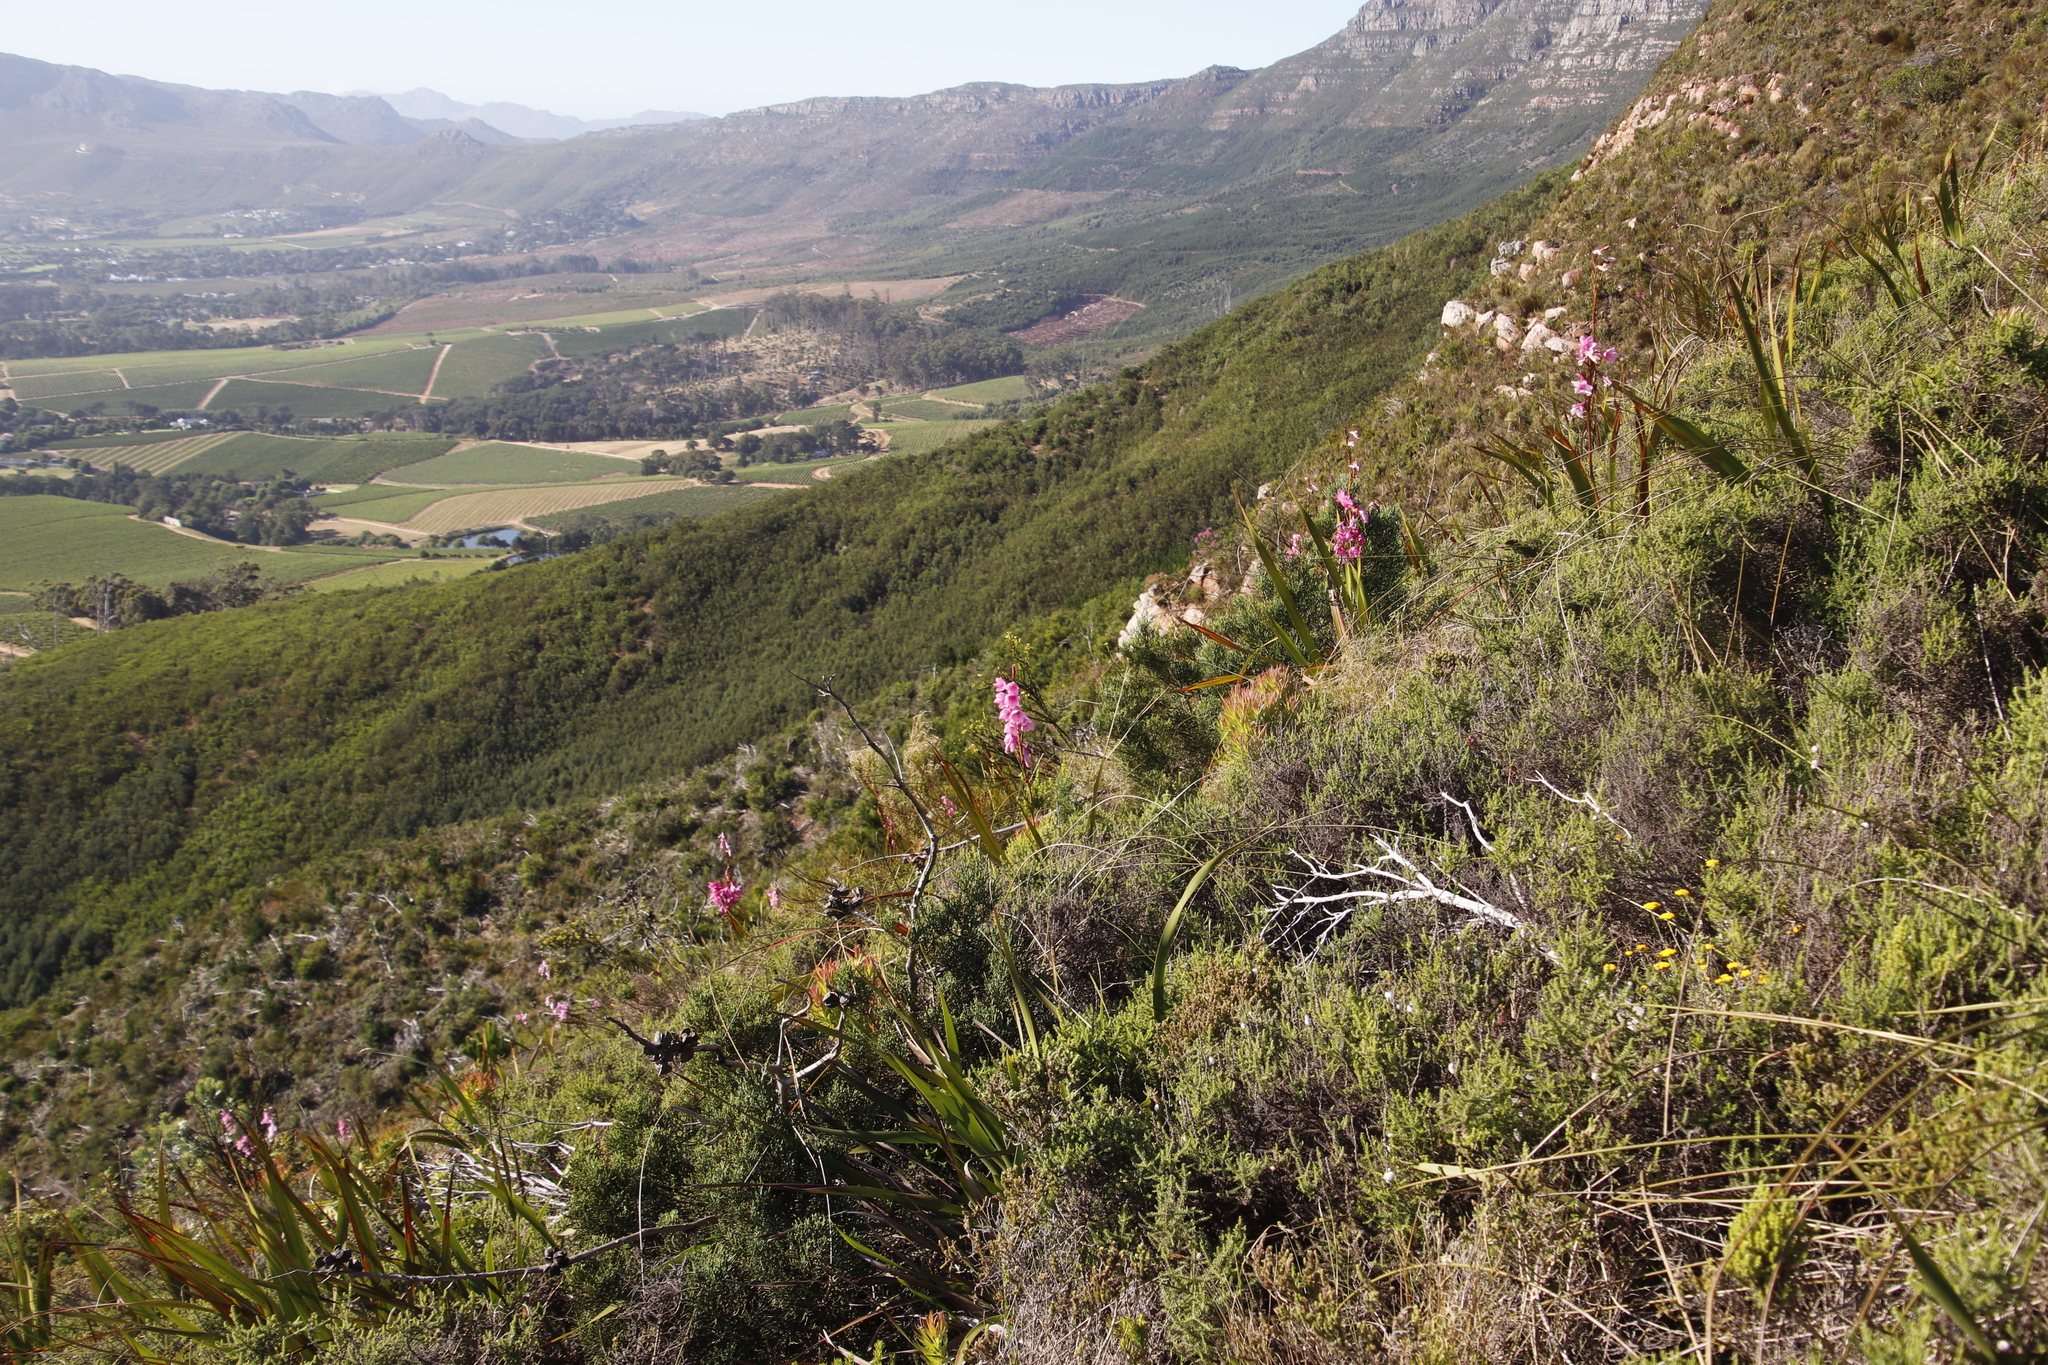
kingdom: Plantae
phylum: Tracheophyta
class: Liliopsida
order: Asparagales
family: Iridaceae
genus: Watsonia
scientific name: Watsonia borbonica
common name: Bugle-lily
